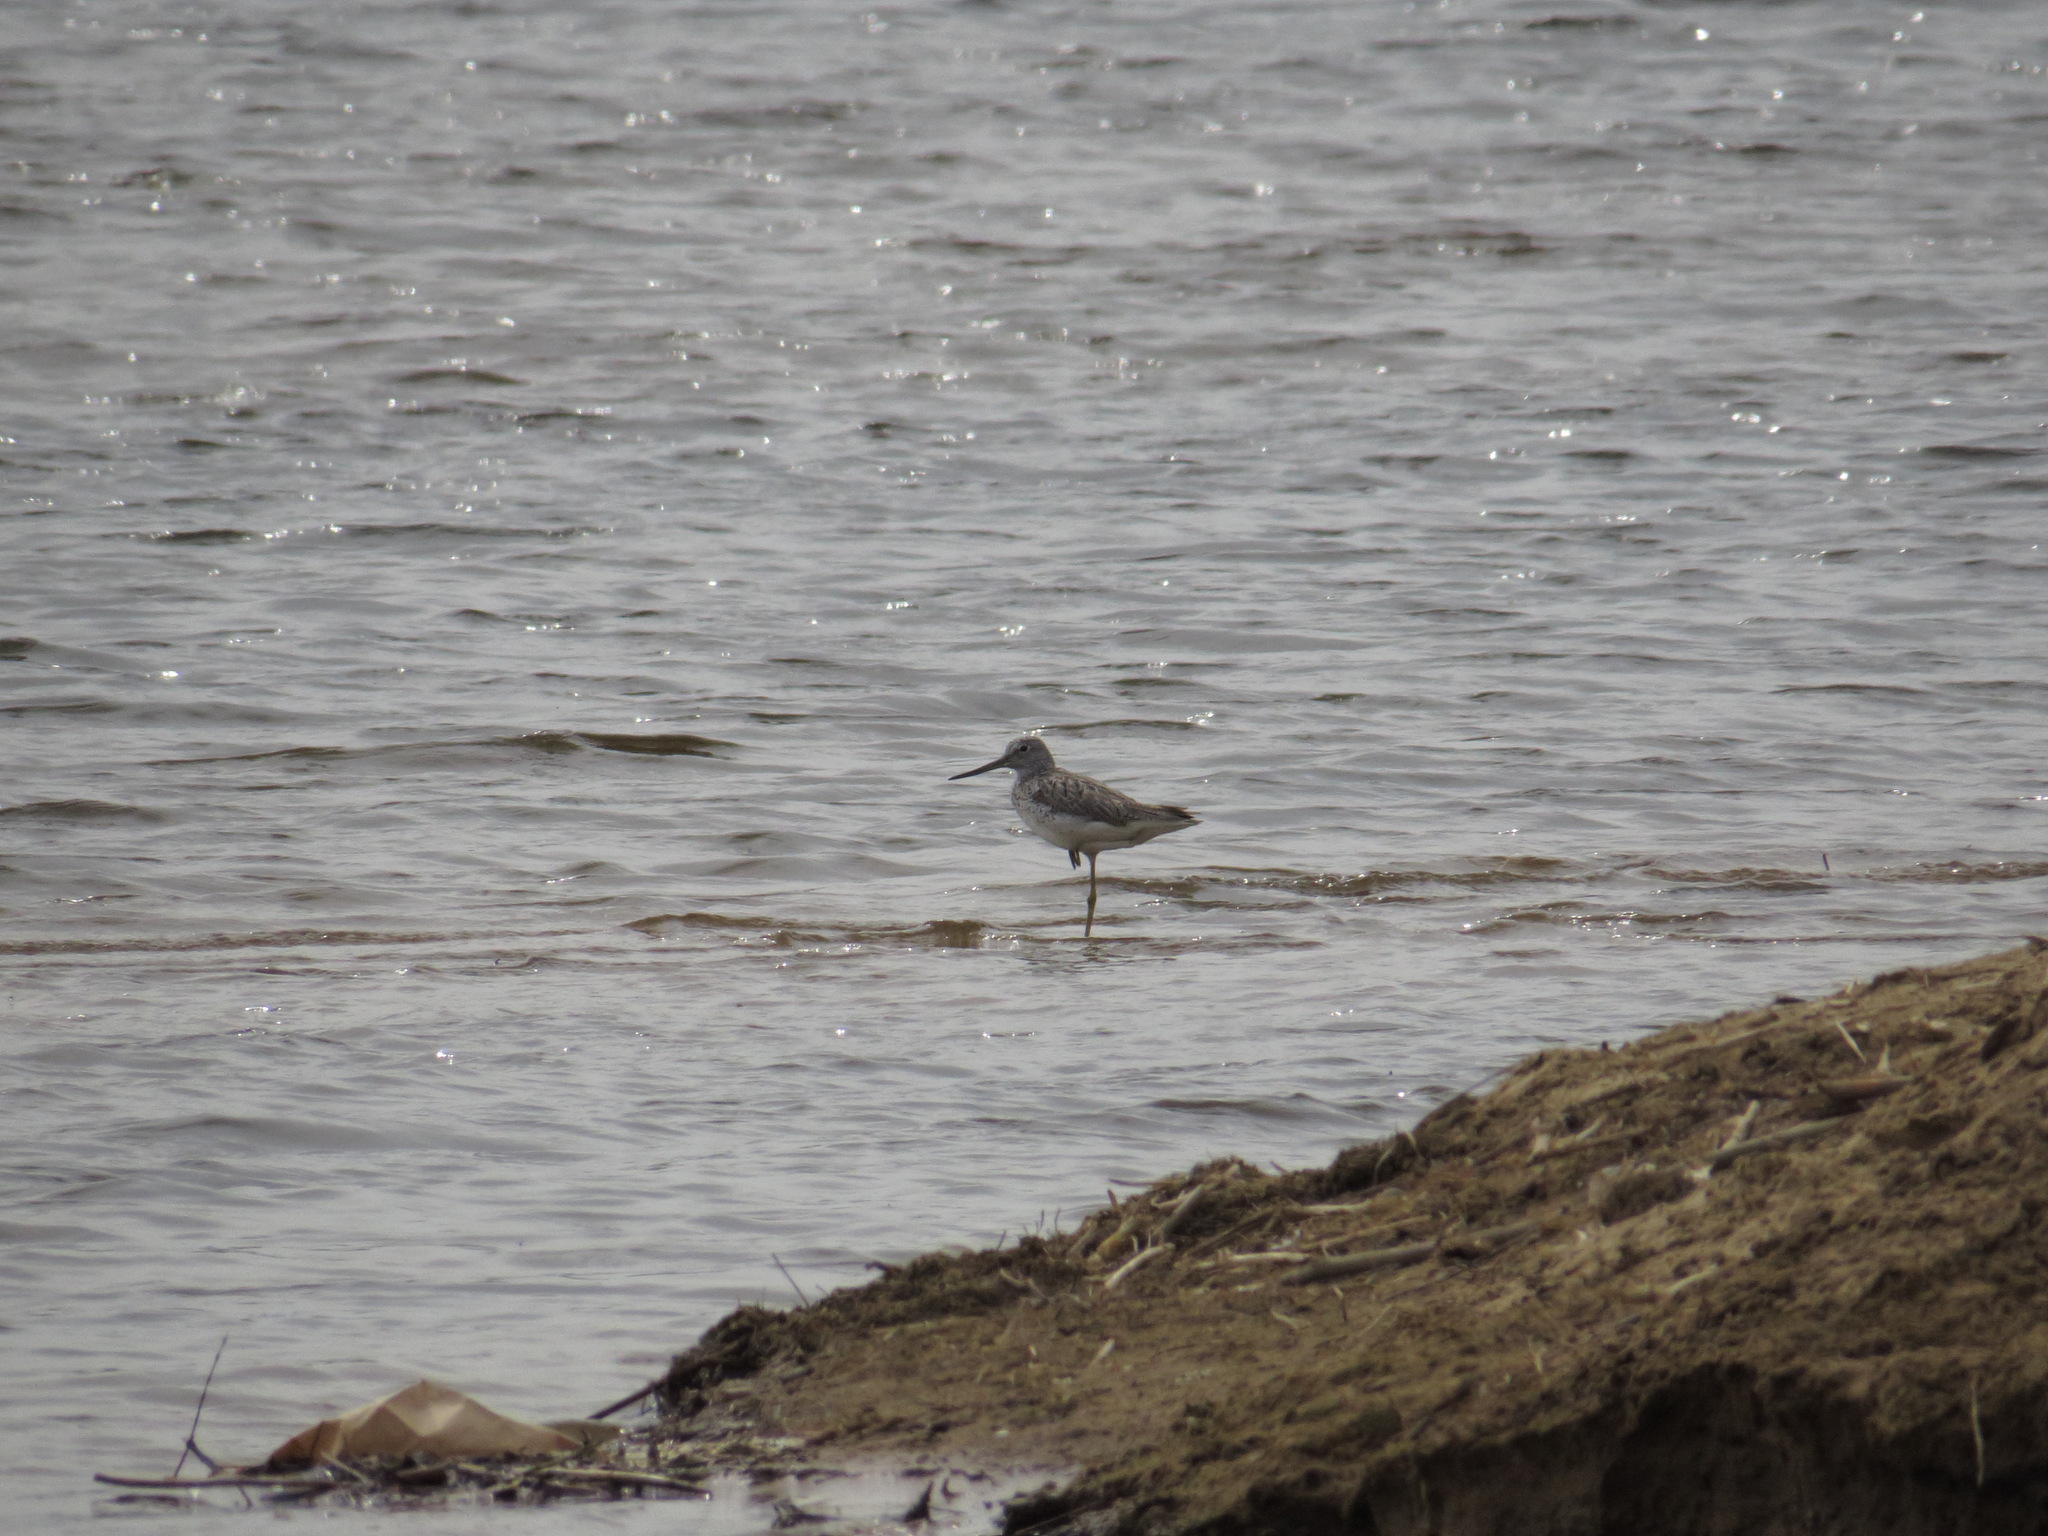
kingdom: Animalia
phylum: Chordata
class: Aves
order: Charadriiformes
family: Scolopacidae
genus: Tringa
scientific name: Tringa nebularia
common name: Common greenshank
